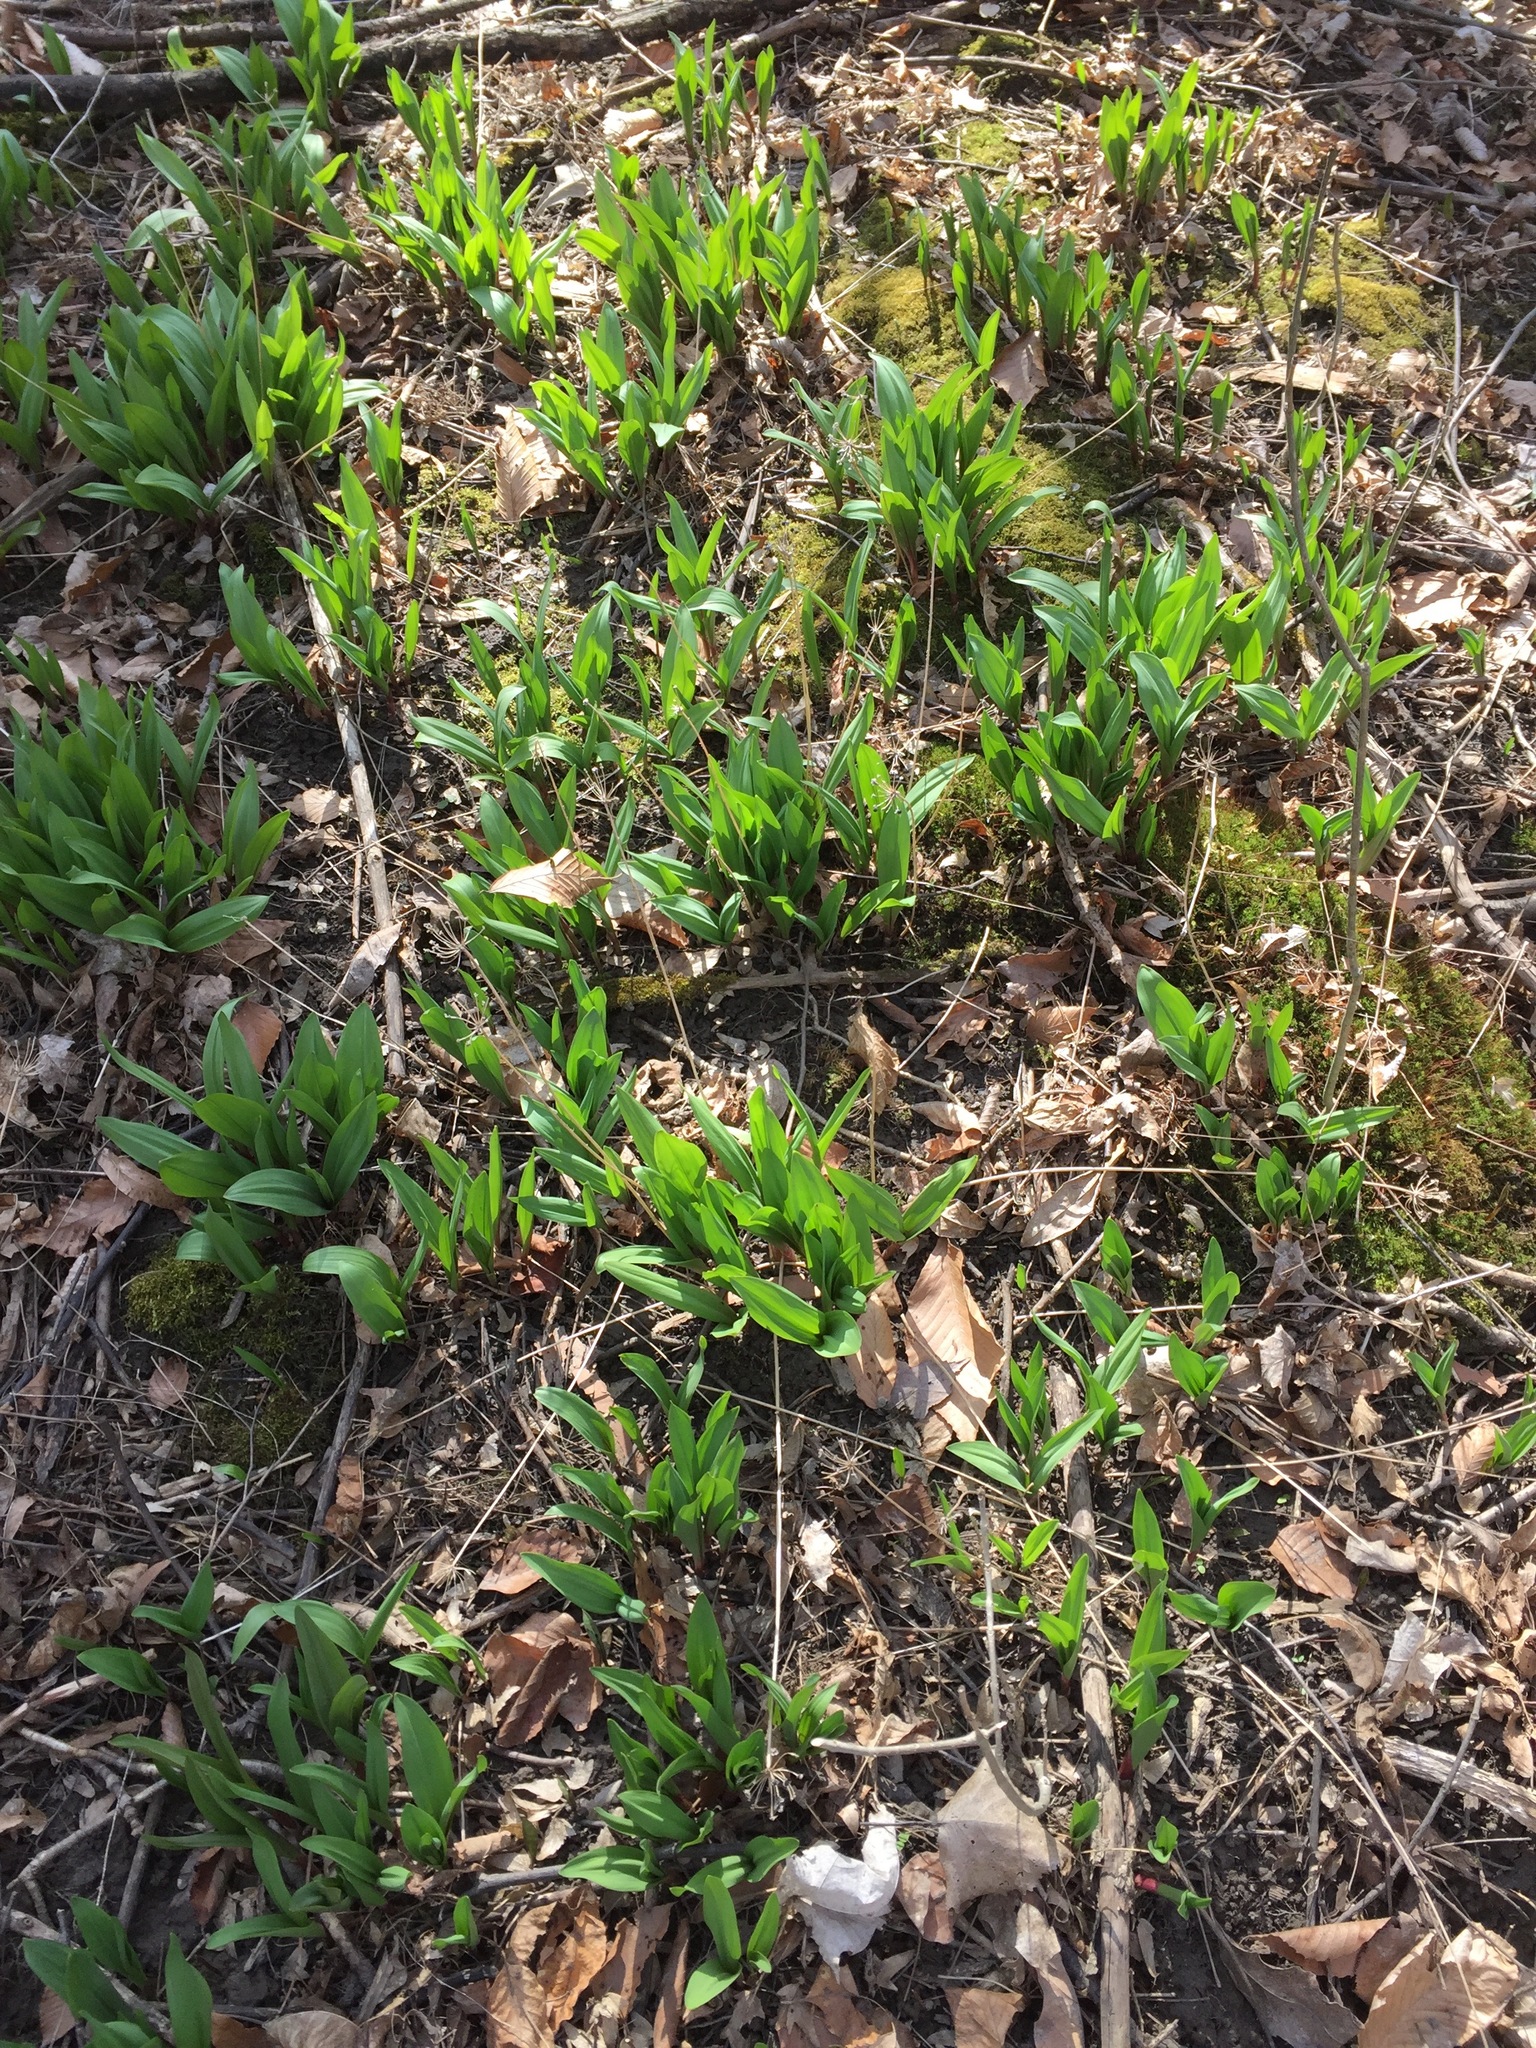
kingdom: Plantae
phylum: Tracheophyta
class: Liliopsida
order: Asparagales
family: Amaryllidaceae
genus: Allium
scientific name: Allium tricoccum
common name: Ramp
